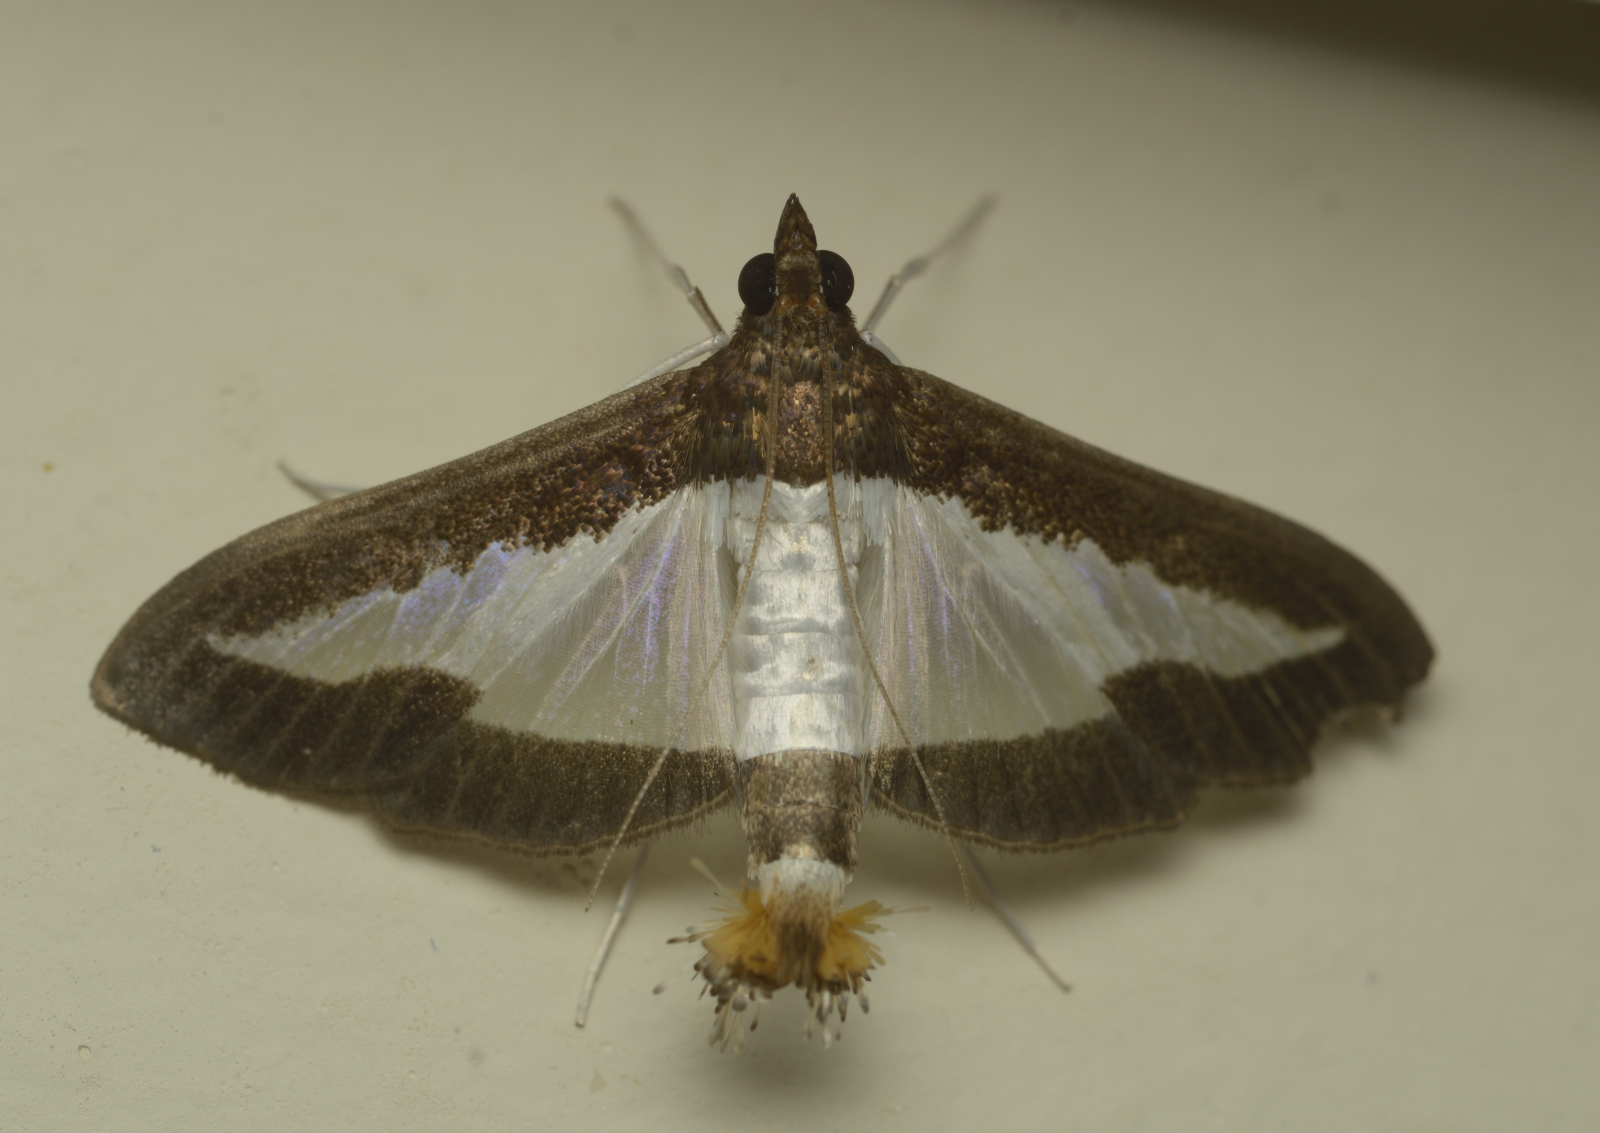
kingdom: Animalia
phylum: Arthropoda
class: Insecta
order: Lepidoptera
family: Crambidae
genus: Diaphania
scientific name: Diaphania indica
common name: Cucumber moth
